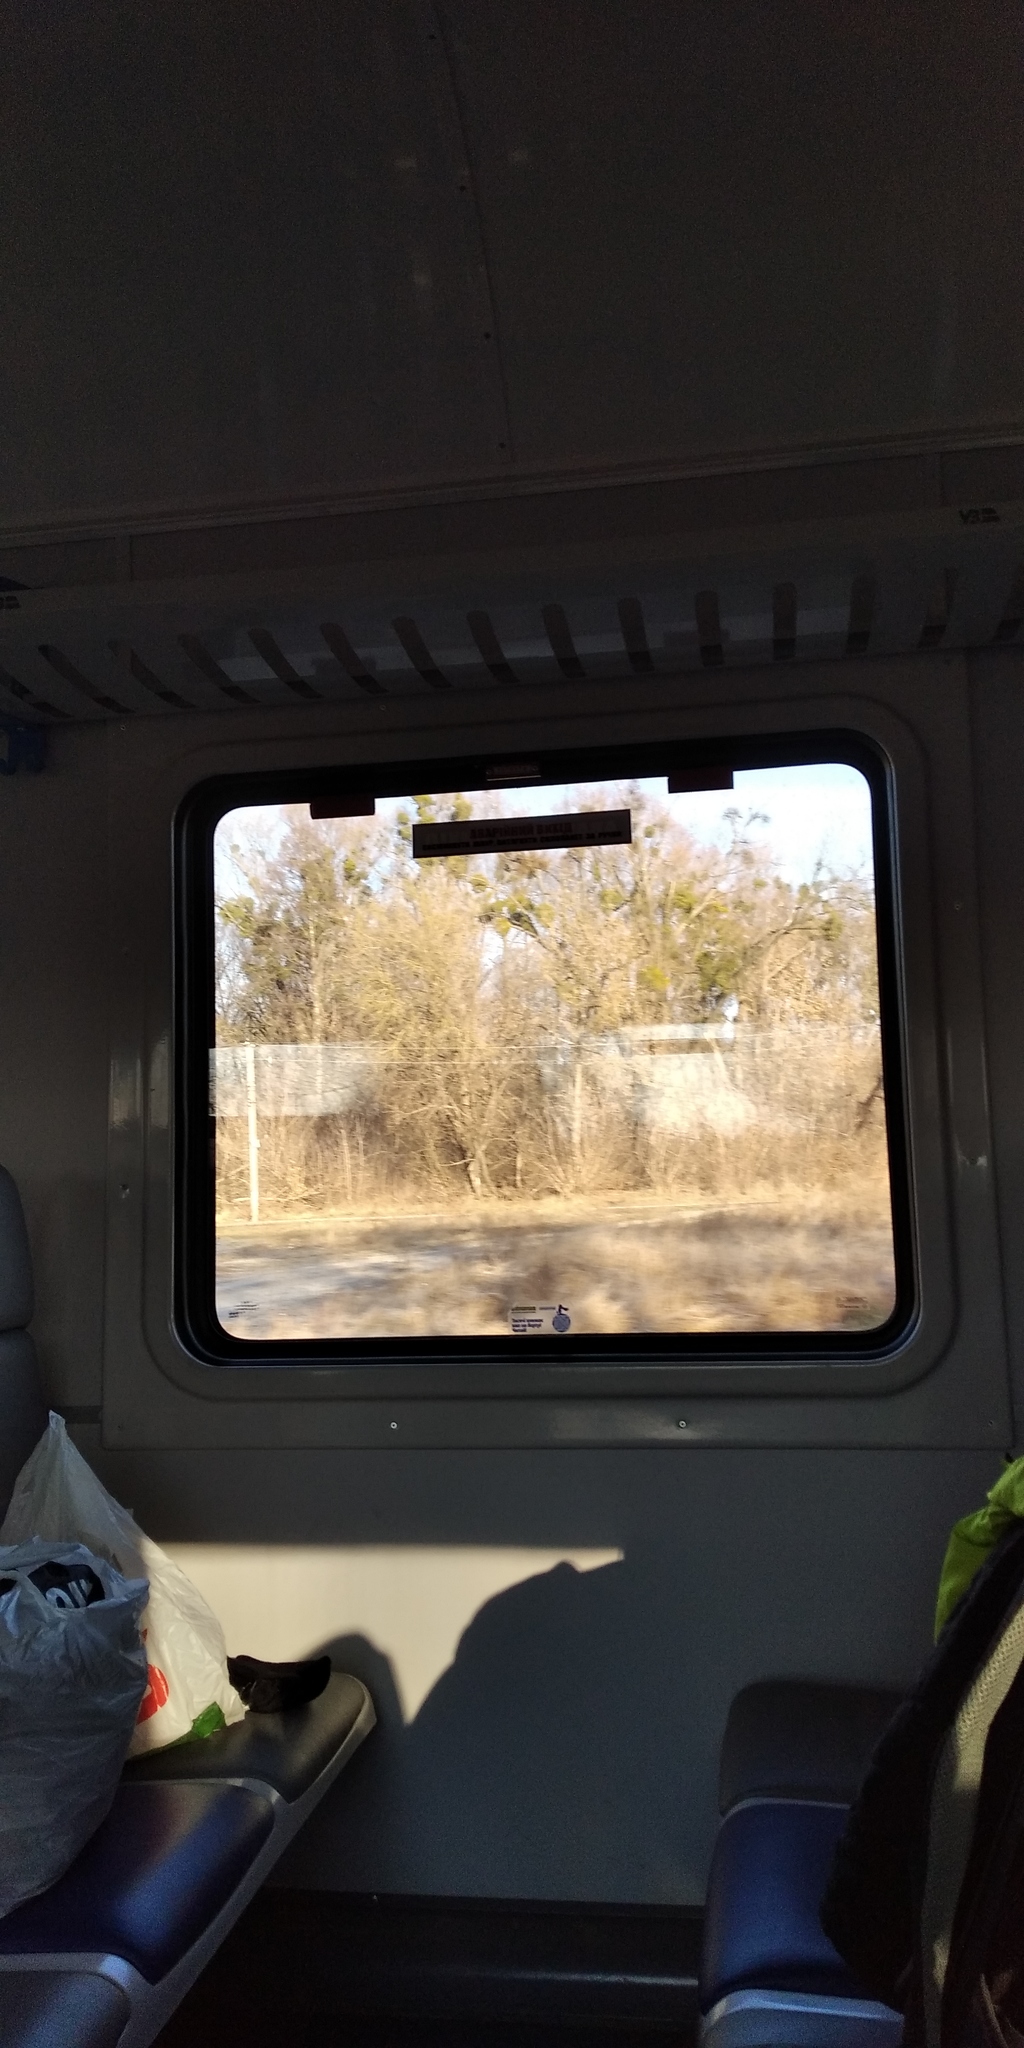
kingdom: Plantae
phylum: Tracheophyta
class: Magnoliopsida
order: Santalales
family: Viscaceae
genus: Viscum
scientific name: Viscum album
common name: Mistletoe
